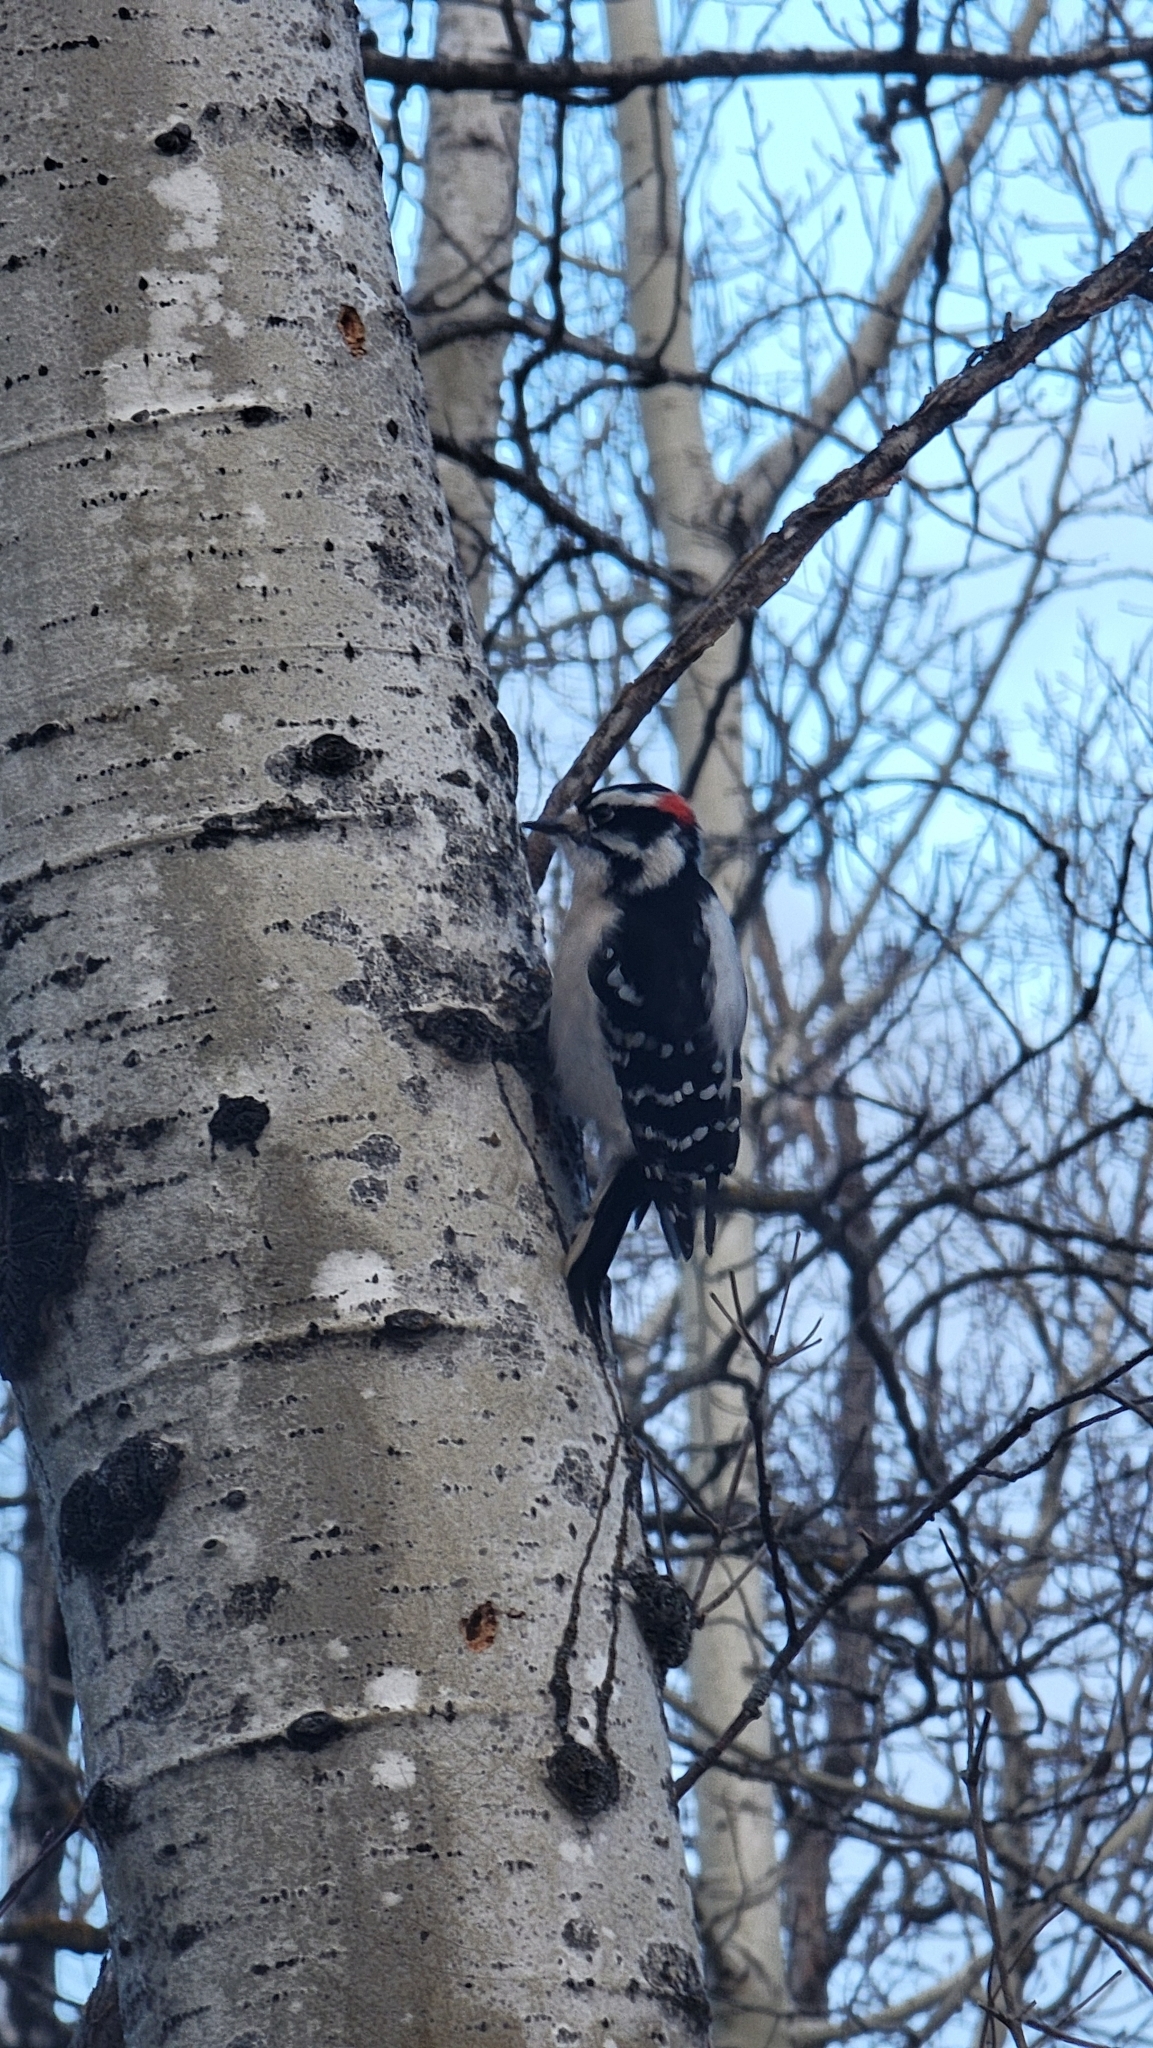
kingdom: Animalia
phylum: Chordata
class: Aves
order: Piciformes
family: Picidae
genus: Dryobates
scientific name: Dryobates pubescens
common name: Downy woodpecker
